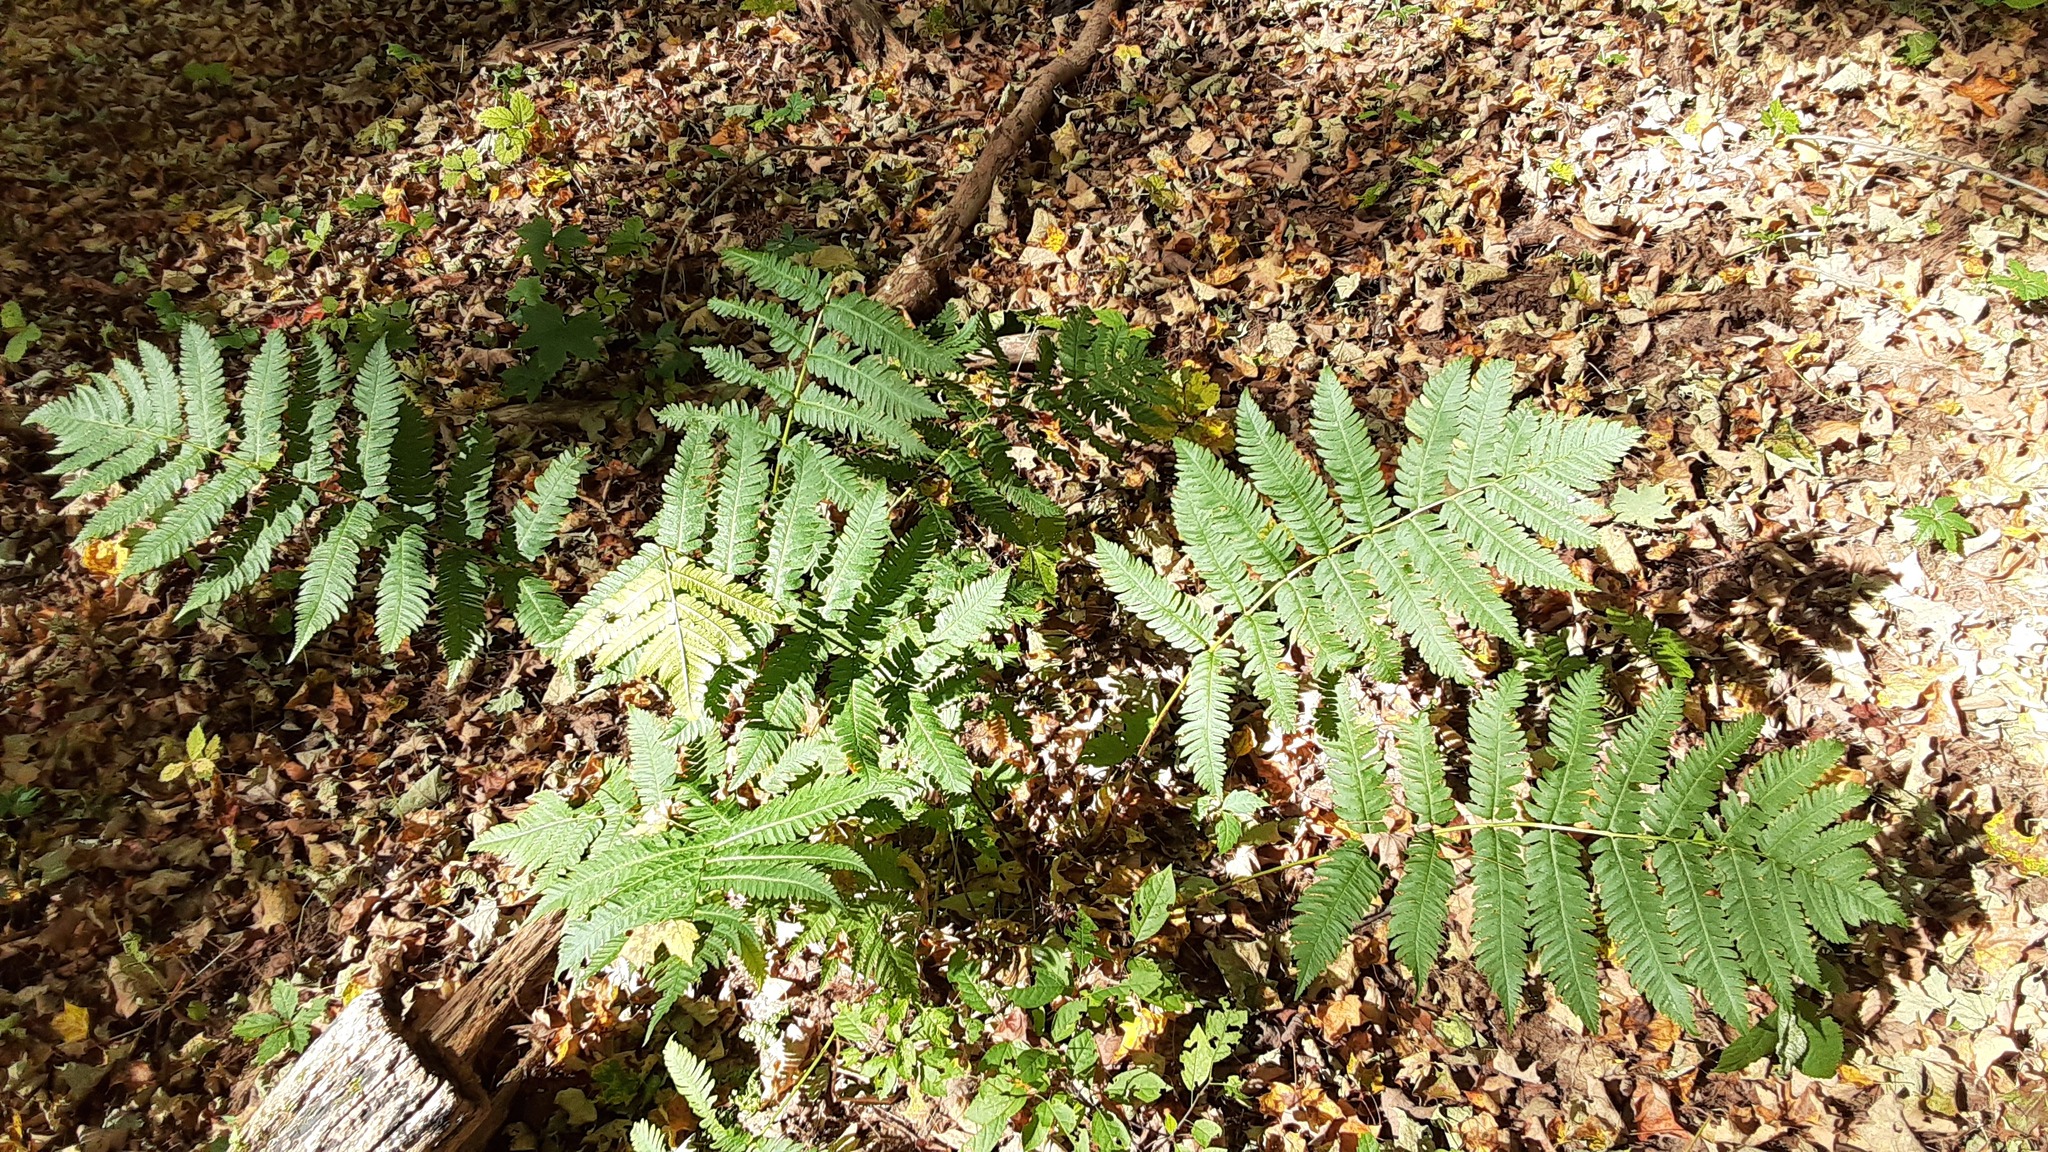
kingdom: Plantae
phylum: Tracheophyta
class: Polypodiopsida
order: Polypodiales
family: Dryopteridaceae
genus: Dryopteris
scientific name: Dryopteris goldieana
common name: Goldie's fern
